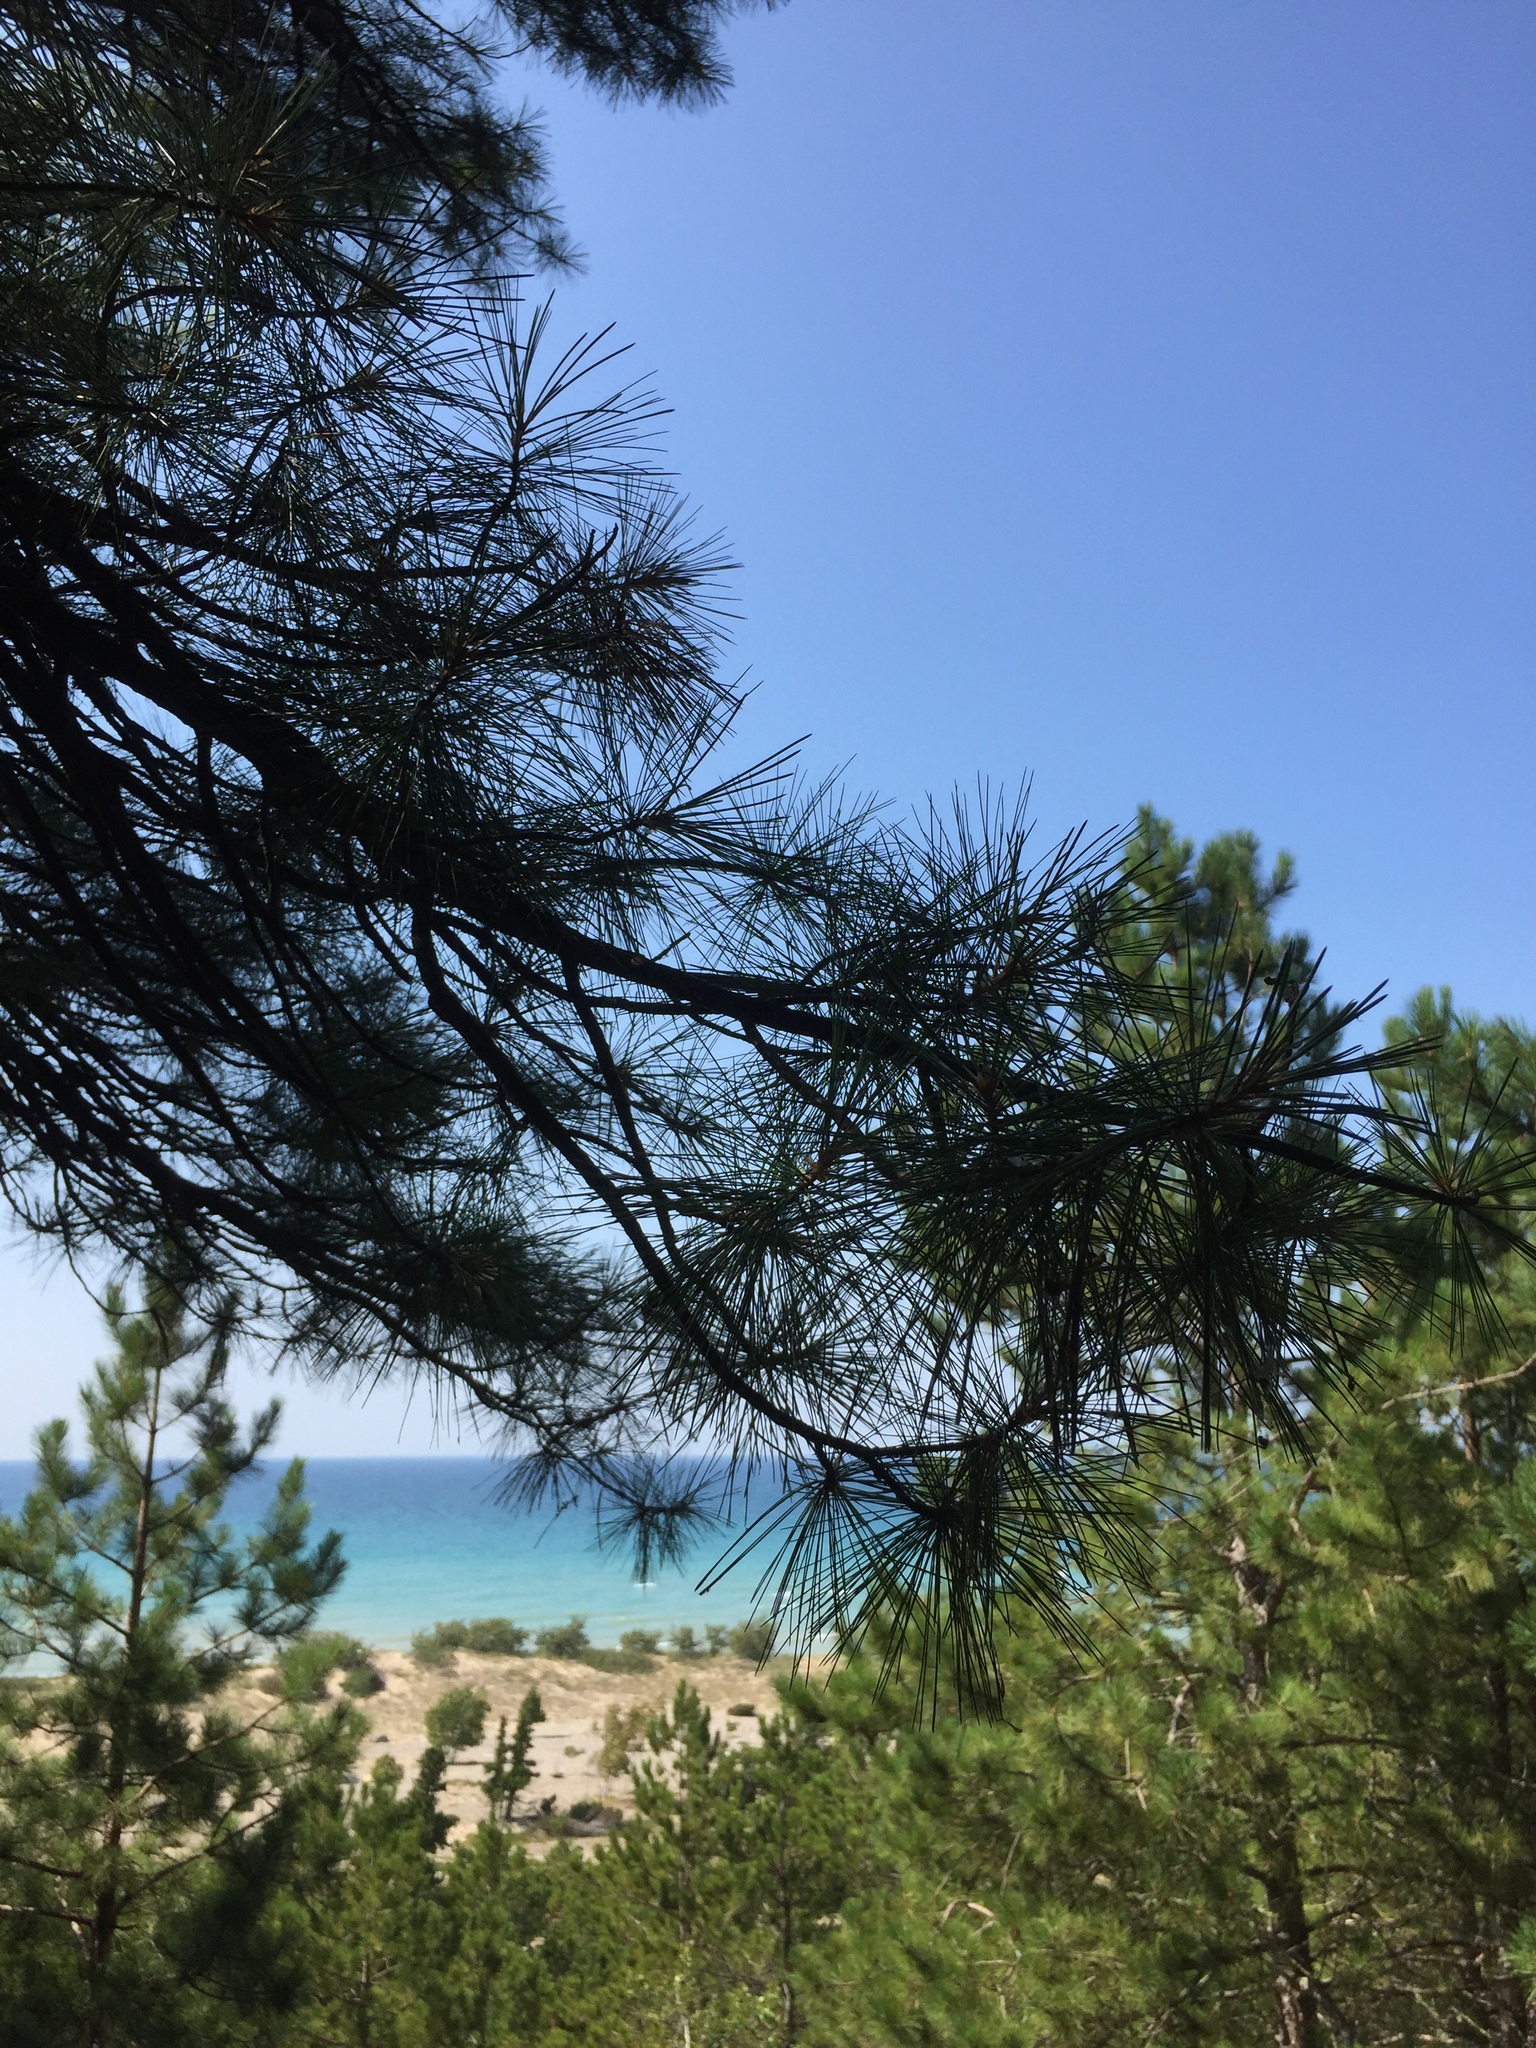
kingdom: Plantae
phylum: Tracheophyta
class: Pinopsida
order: Pinales
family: Pinaceae
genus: Pinus
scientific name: Pinus strobus
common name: Weymouth pine
